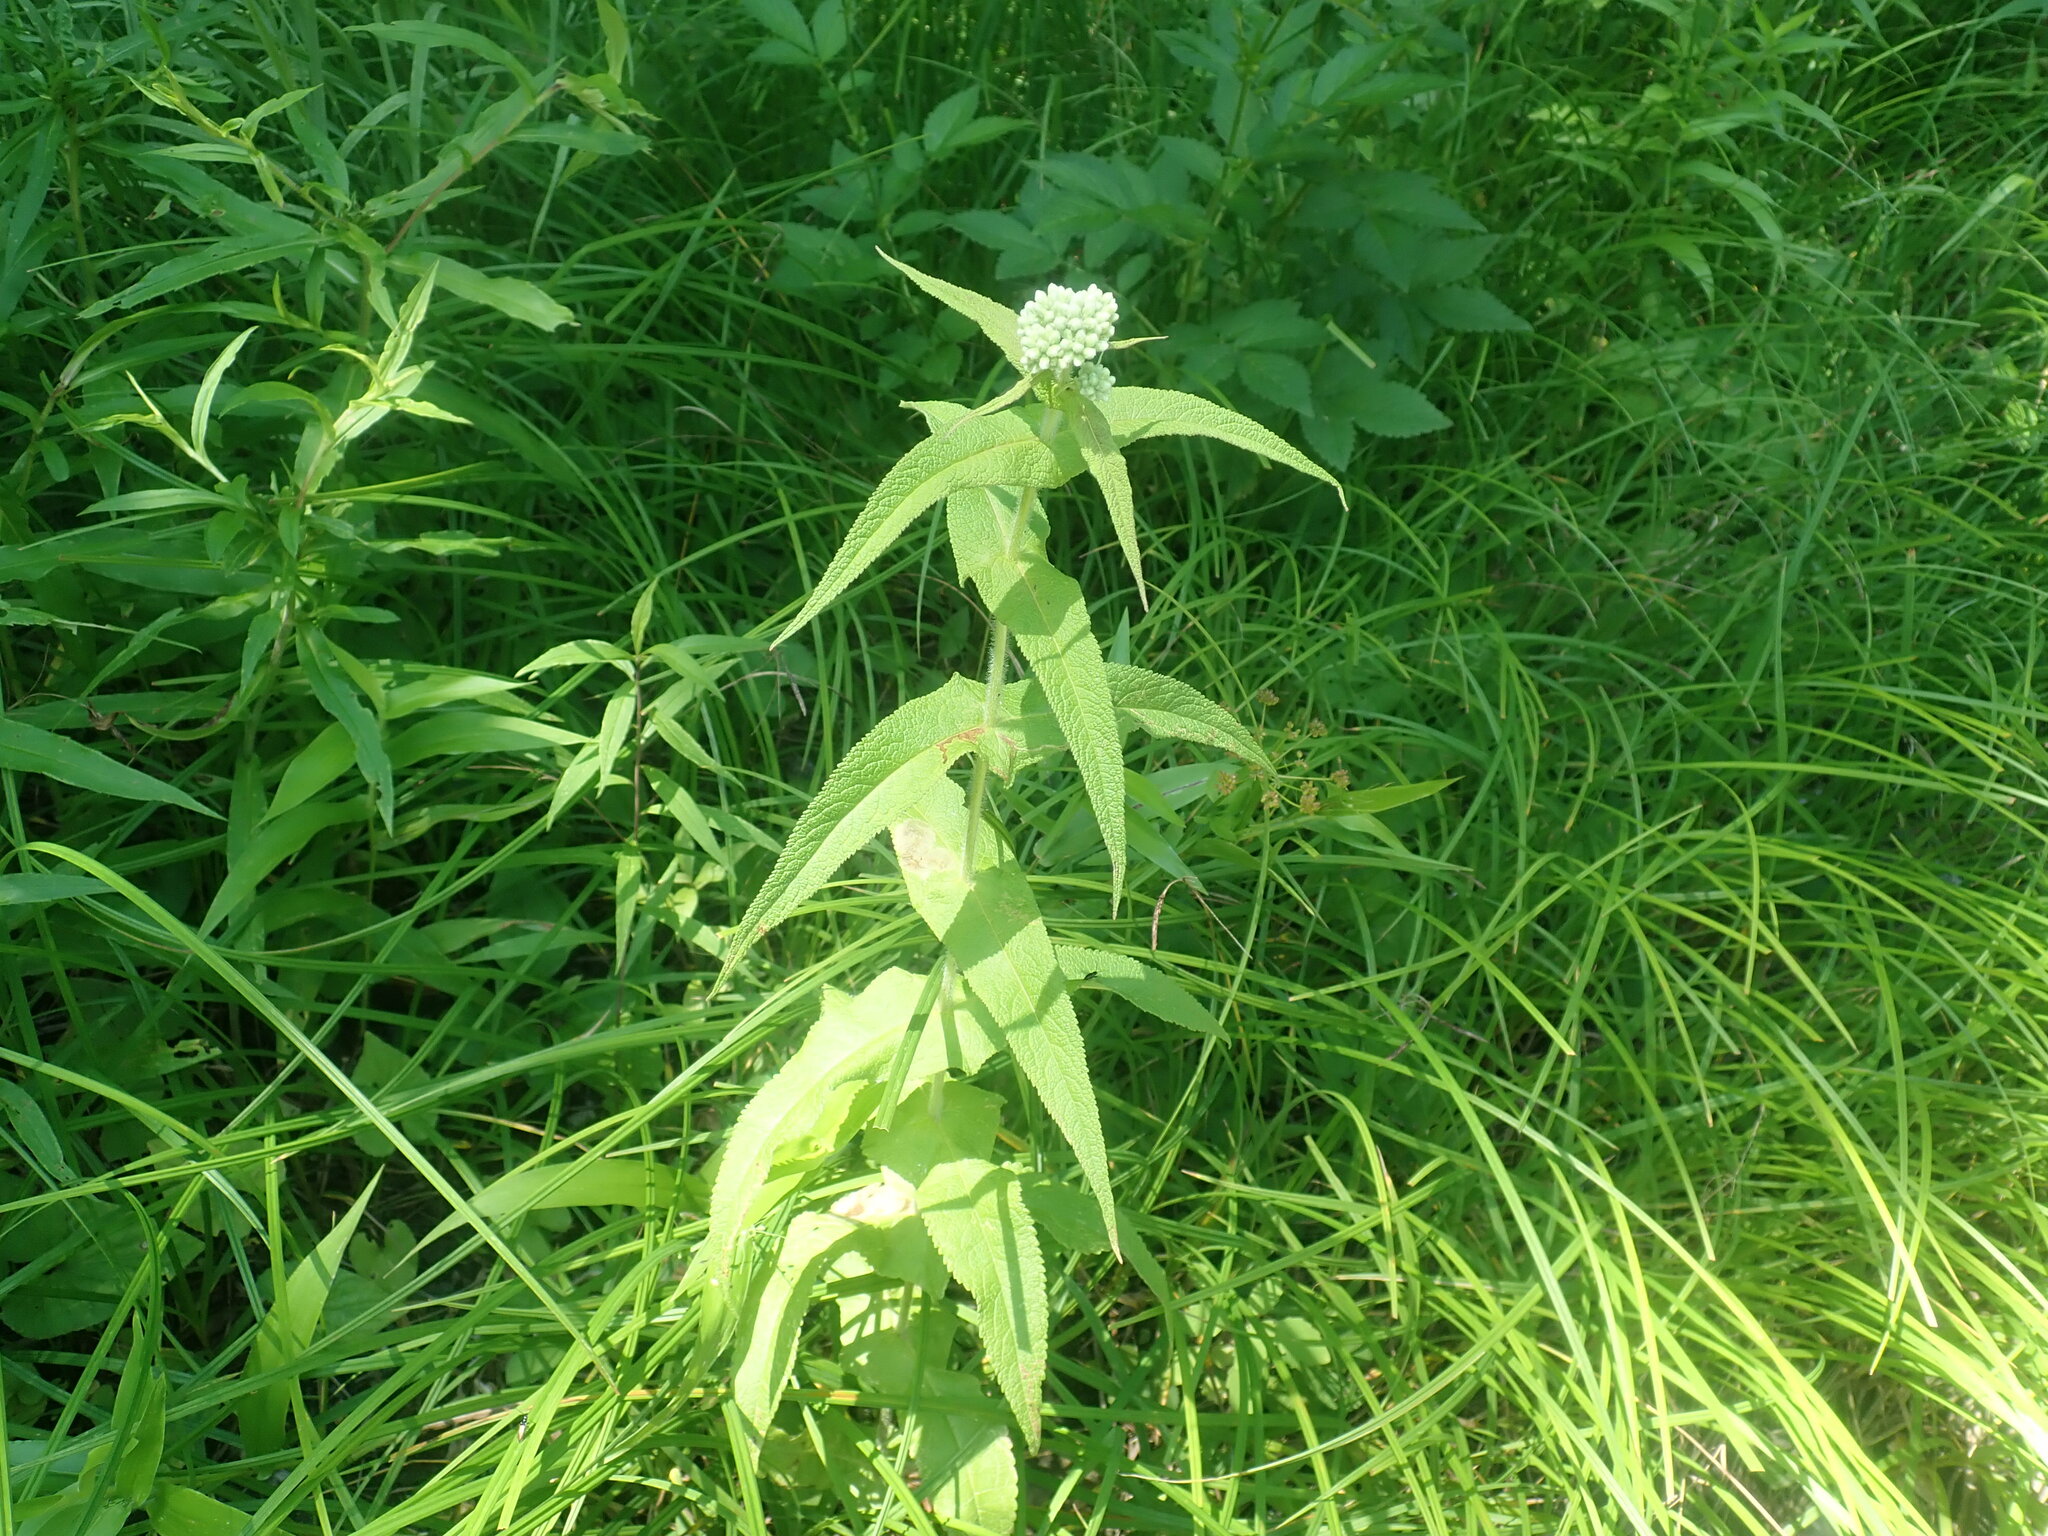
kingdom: Plantae
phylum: Tracheophyta
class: Magnoliopsida
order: Asterales
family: Asteraceae
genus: Eupatorium
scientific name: Eupatorium perfoliatum
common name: Boneset
